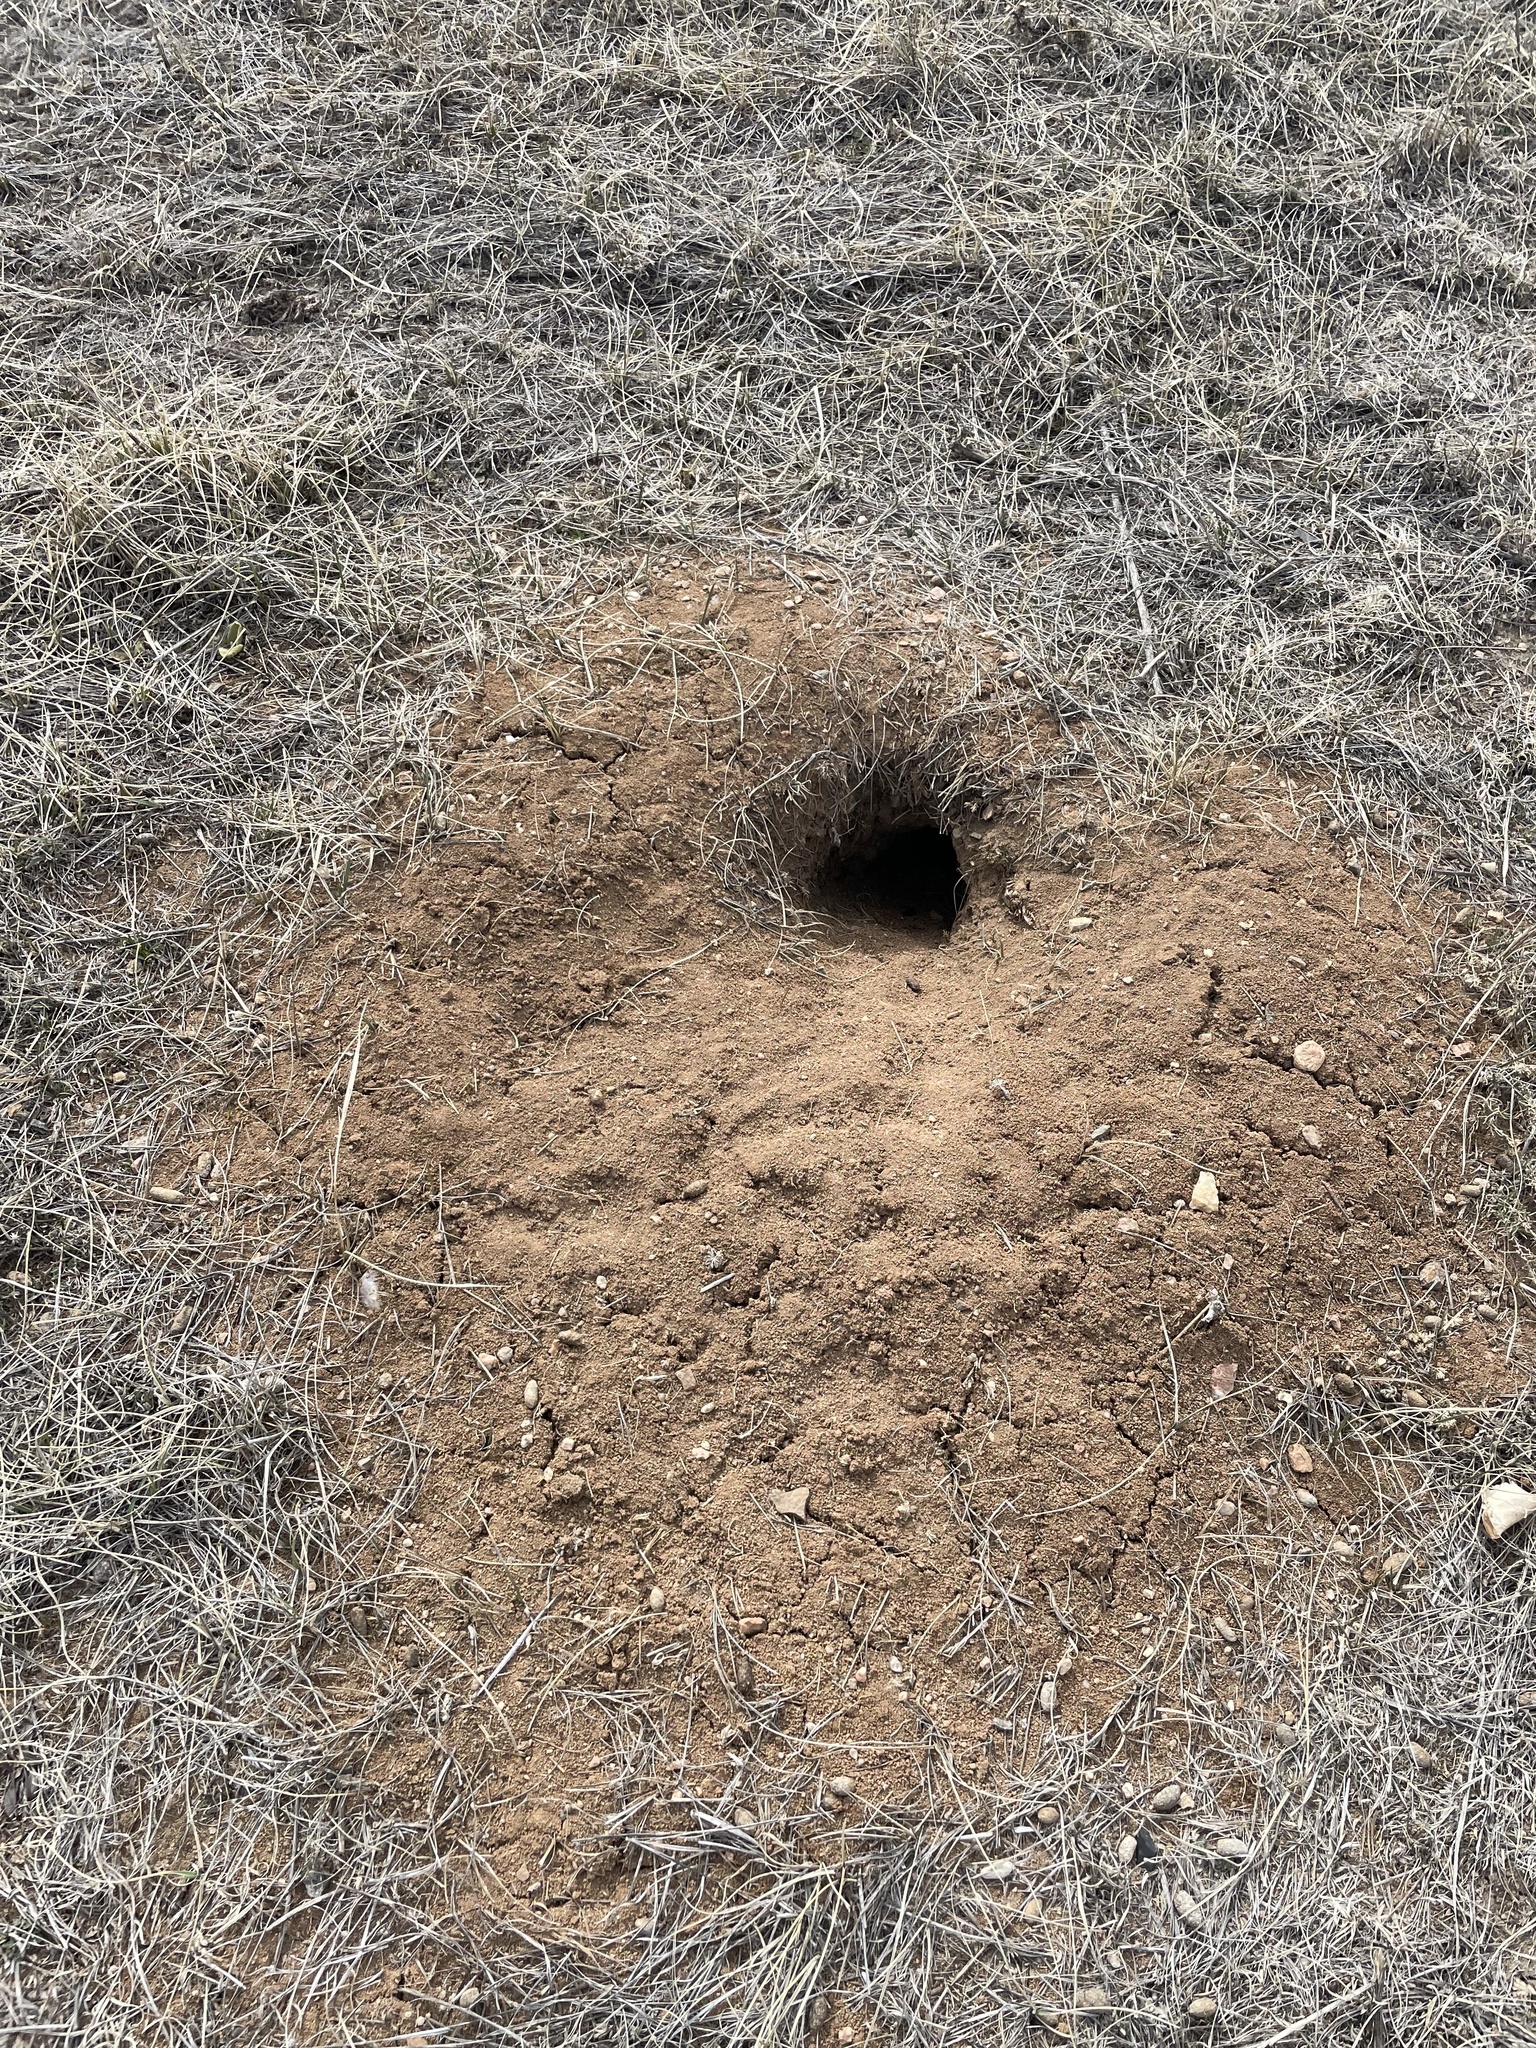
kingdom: Animalia
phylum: Chordata
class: Mammalia
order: Rodentia
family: Sciuridae
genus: Cynomys
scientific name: Cynomys ludovicianus
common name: Black-tailed prairie dog
